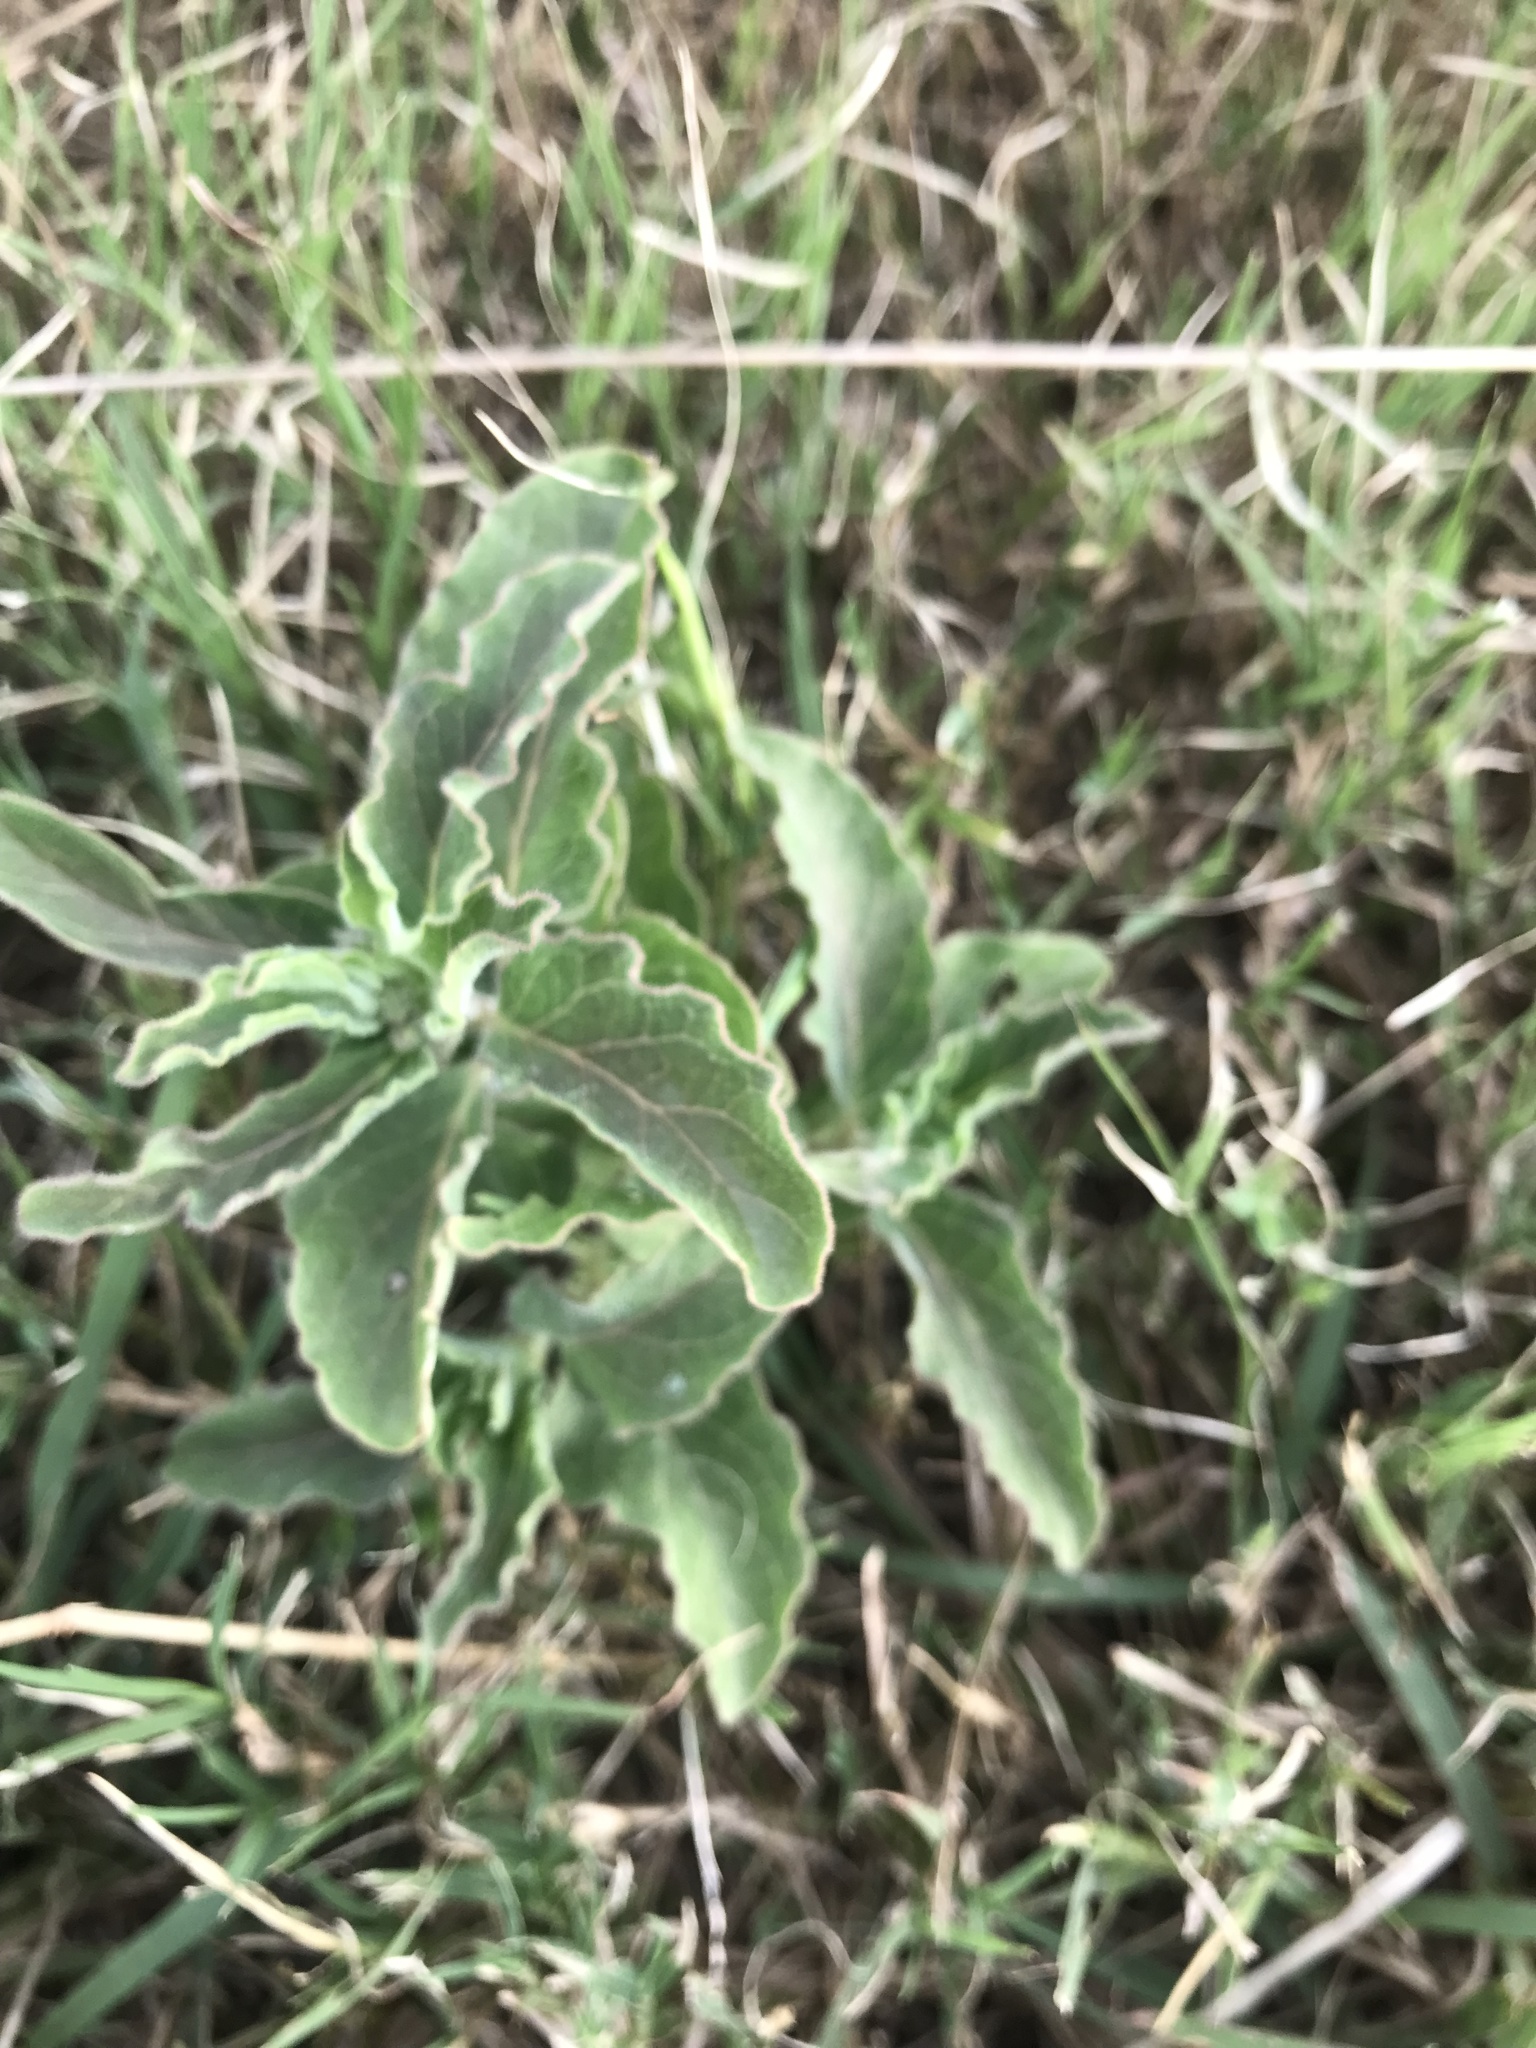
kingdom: Plantae
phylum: Tracheophyta
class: Magnoliopsida
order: Gentianales
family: Apocynaceae
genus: Asclepias
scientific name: Asclepias oenotheroides
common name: Zizotes milkweed
